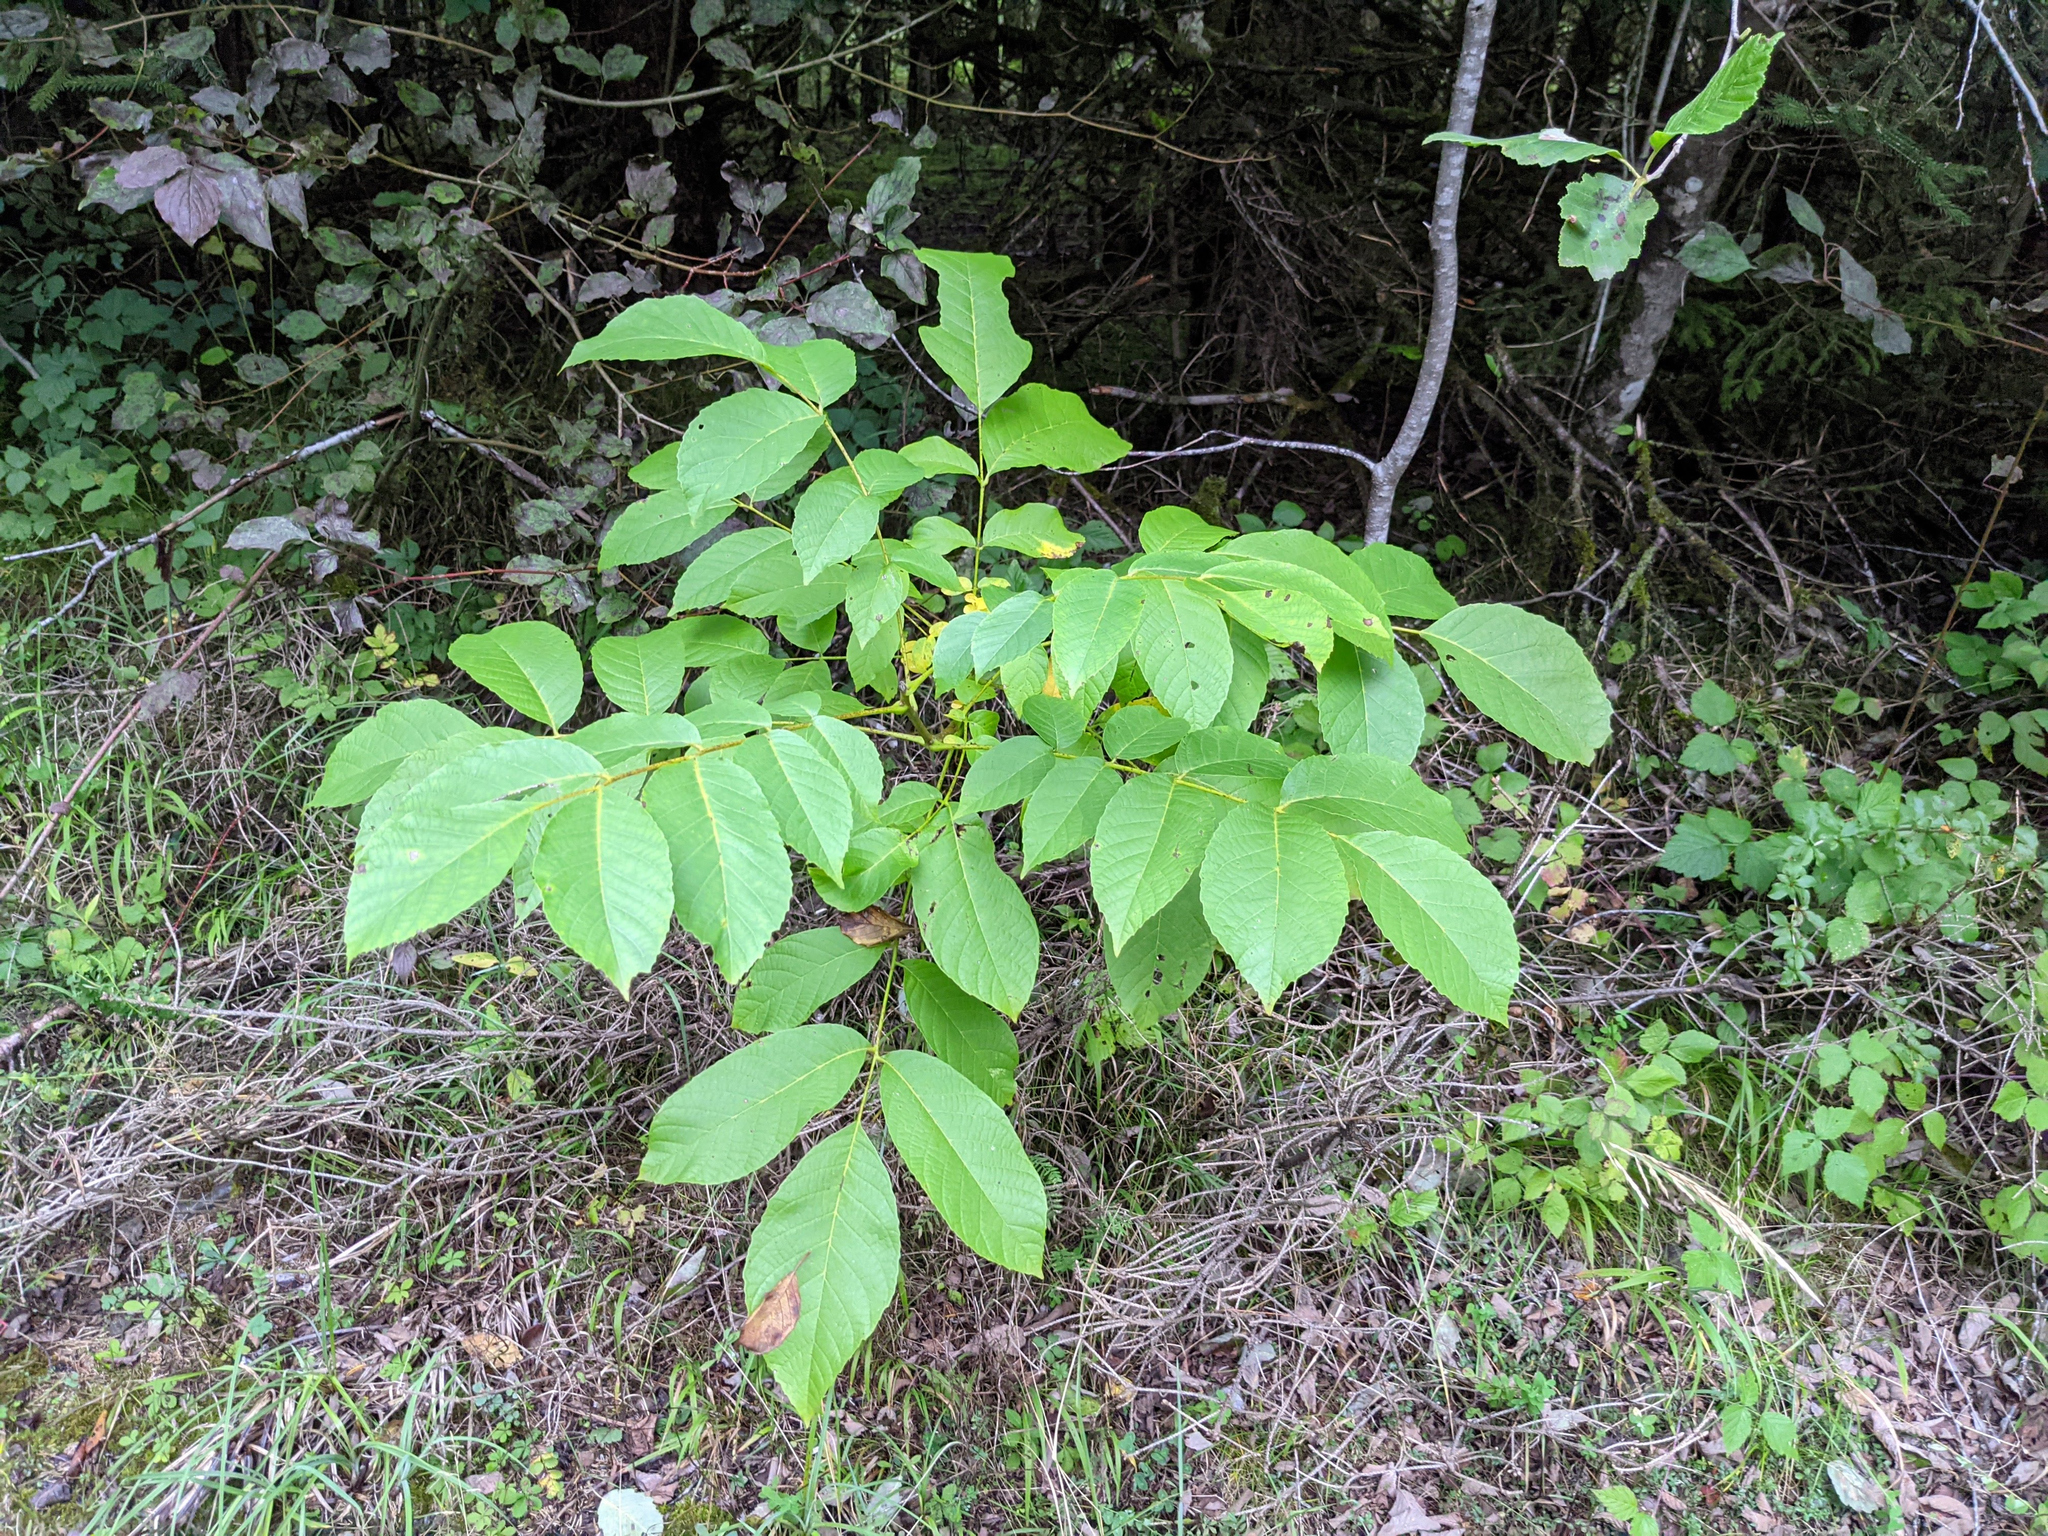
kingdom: Plantae
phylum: Tracheophyta
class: Magnoliopsida
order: Fagales
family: Juglandaceae
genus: Juglans
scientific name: Juglans regia
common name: Walnut
